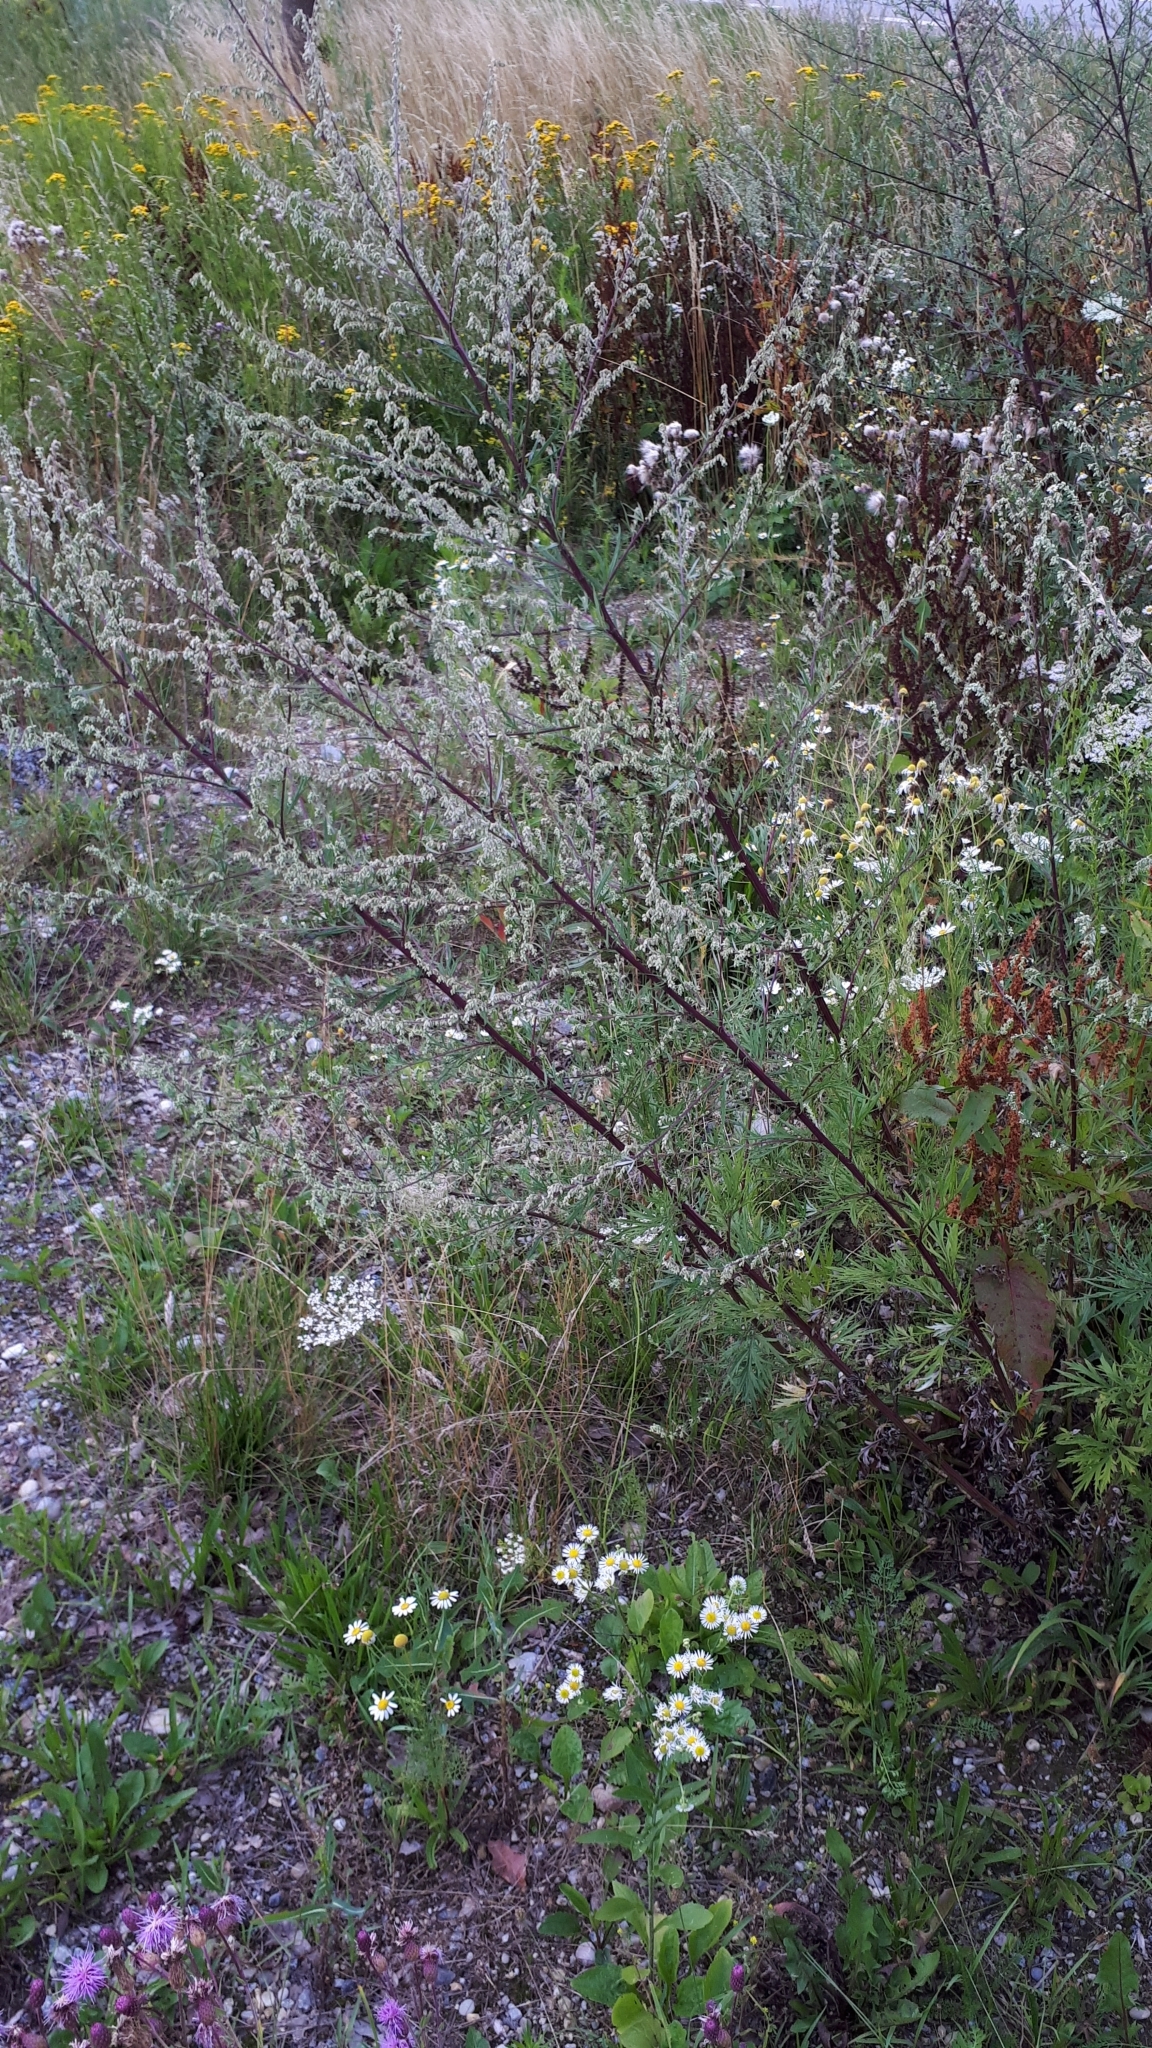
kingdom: Plantae
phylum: Tracheophyta
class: Magnoliopsida
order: Asterales
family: Asteraceae
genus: Artemisia
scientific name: Artemisia vulgaris
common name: Mugwort
